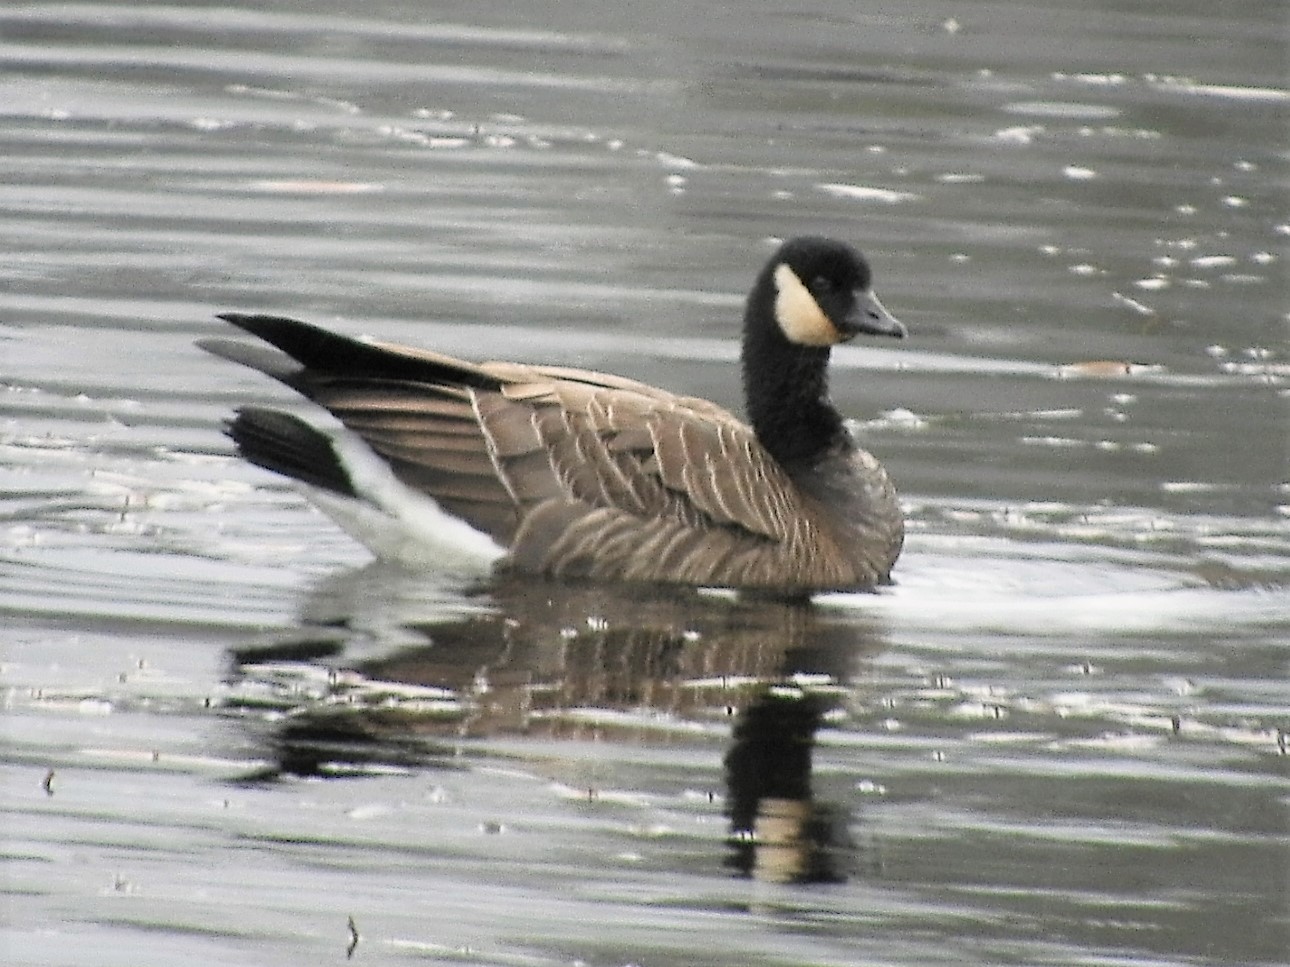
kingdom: Animalia
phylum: Chordata
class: Aves
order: Anseriformes
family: Anatidae
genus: Branta
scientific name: Branta hutchinsii
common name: Cackling goose
